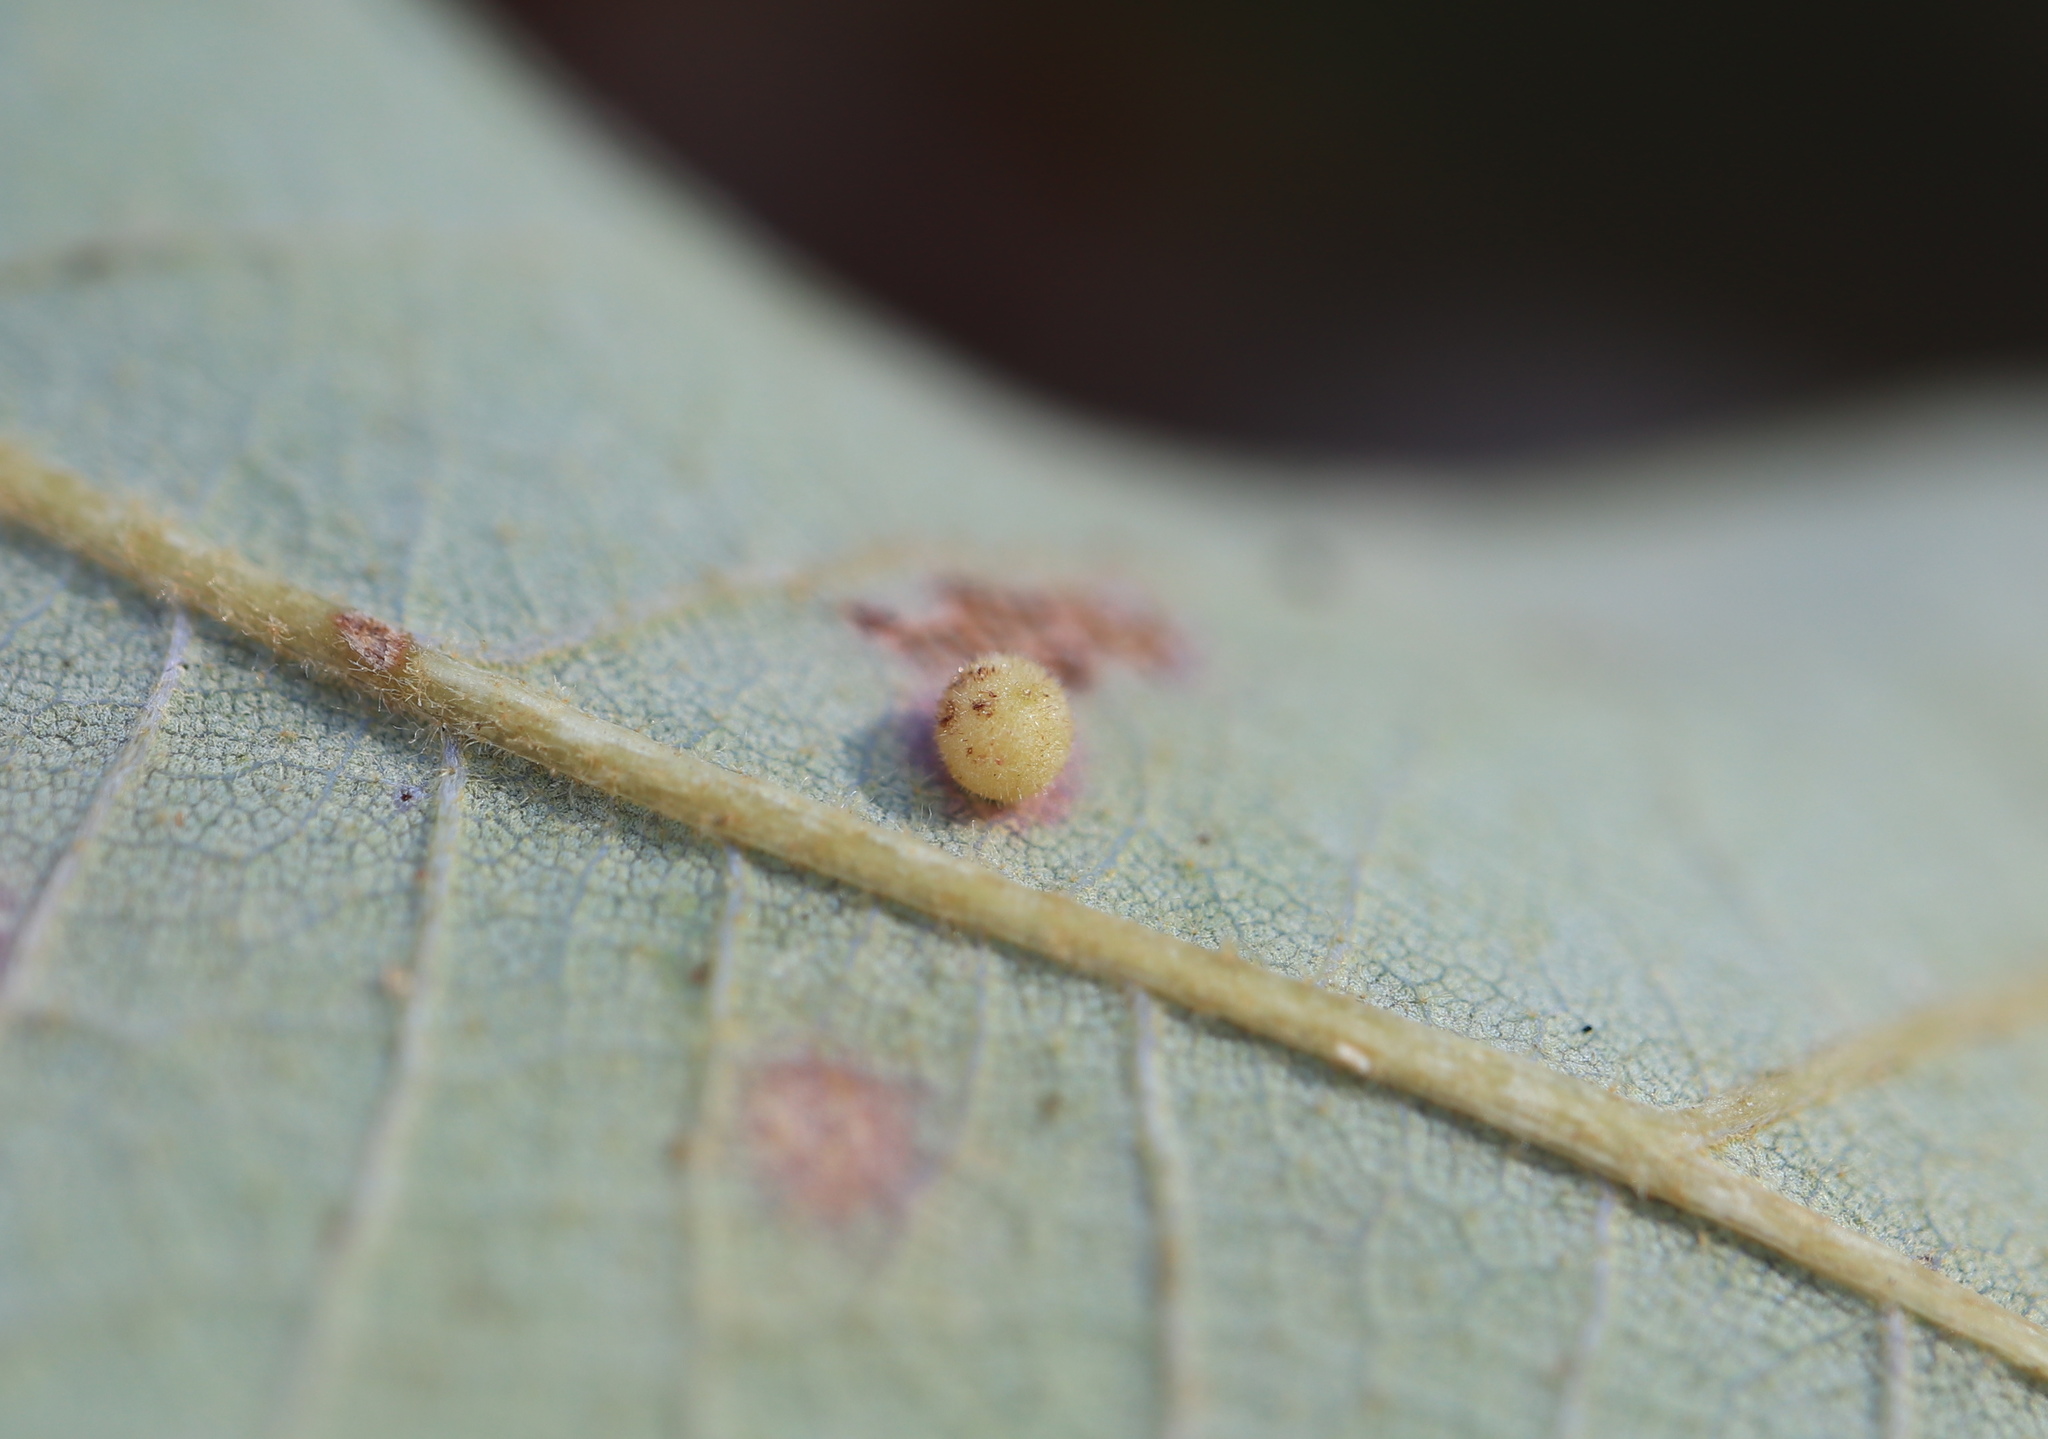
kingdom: Animalia
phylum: Arthropoda
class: Insecta
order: Hymenoptera
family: Cynipidae
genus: Neuroterus
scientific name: Neuroterus saltarius
